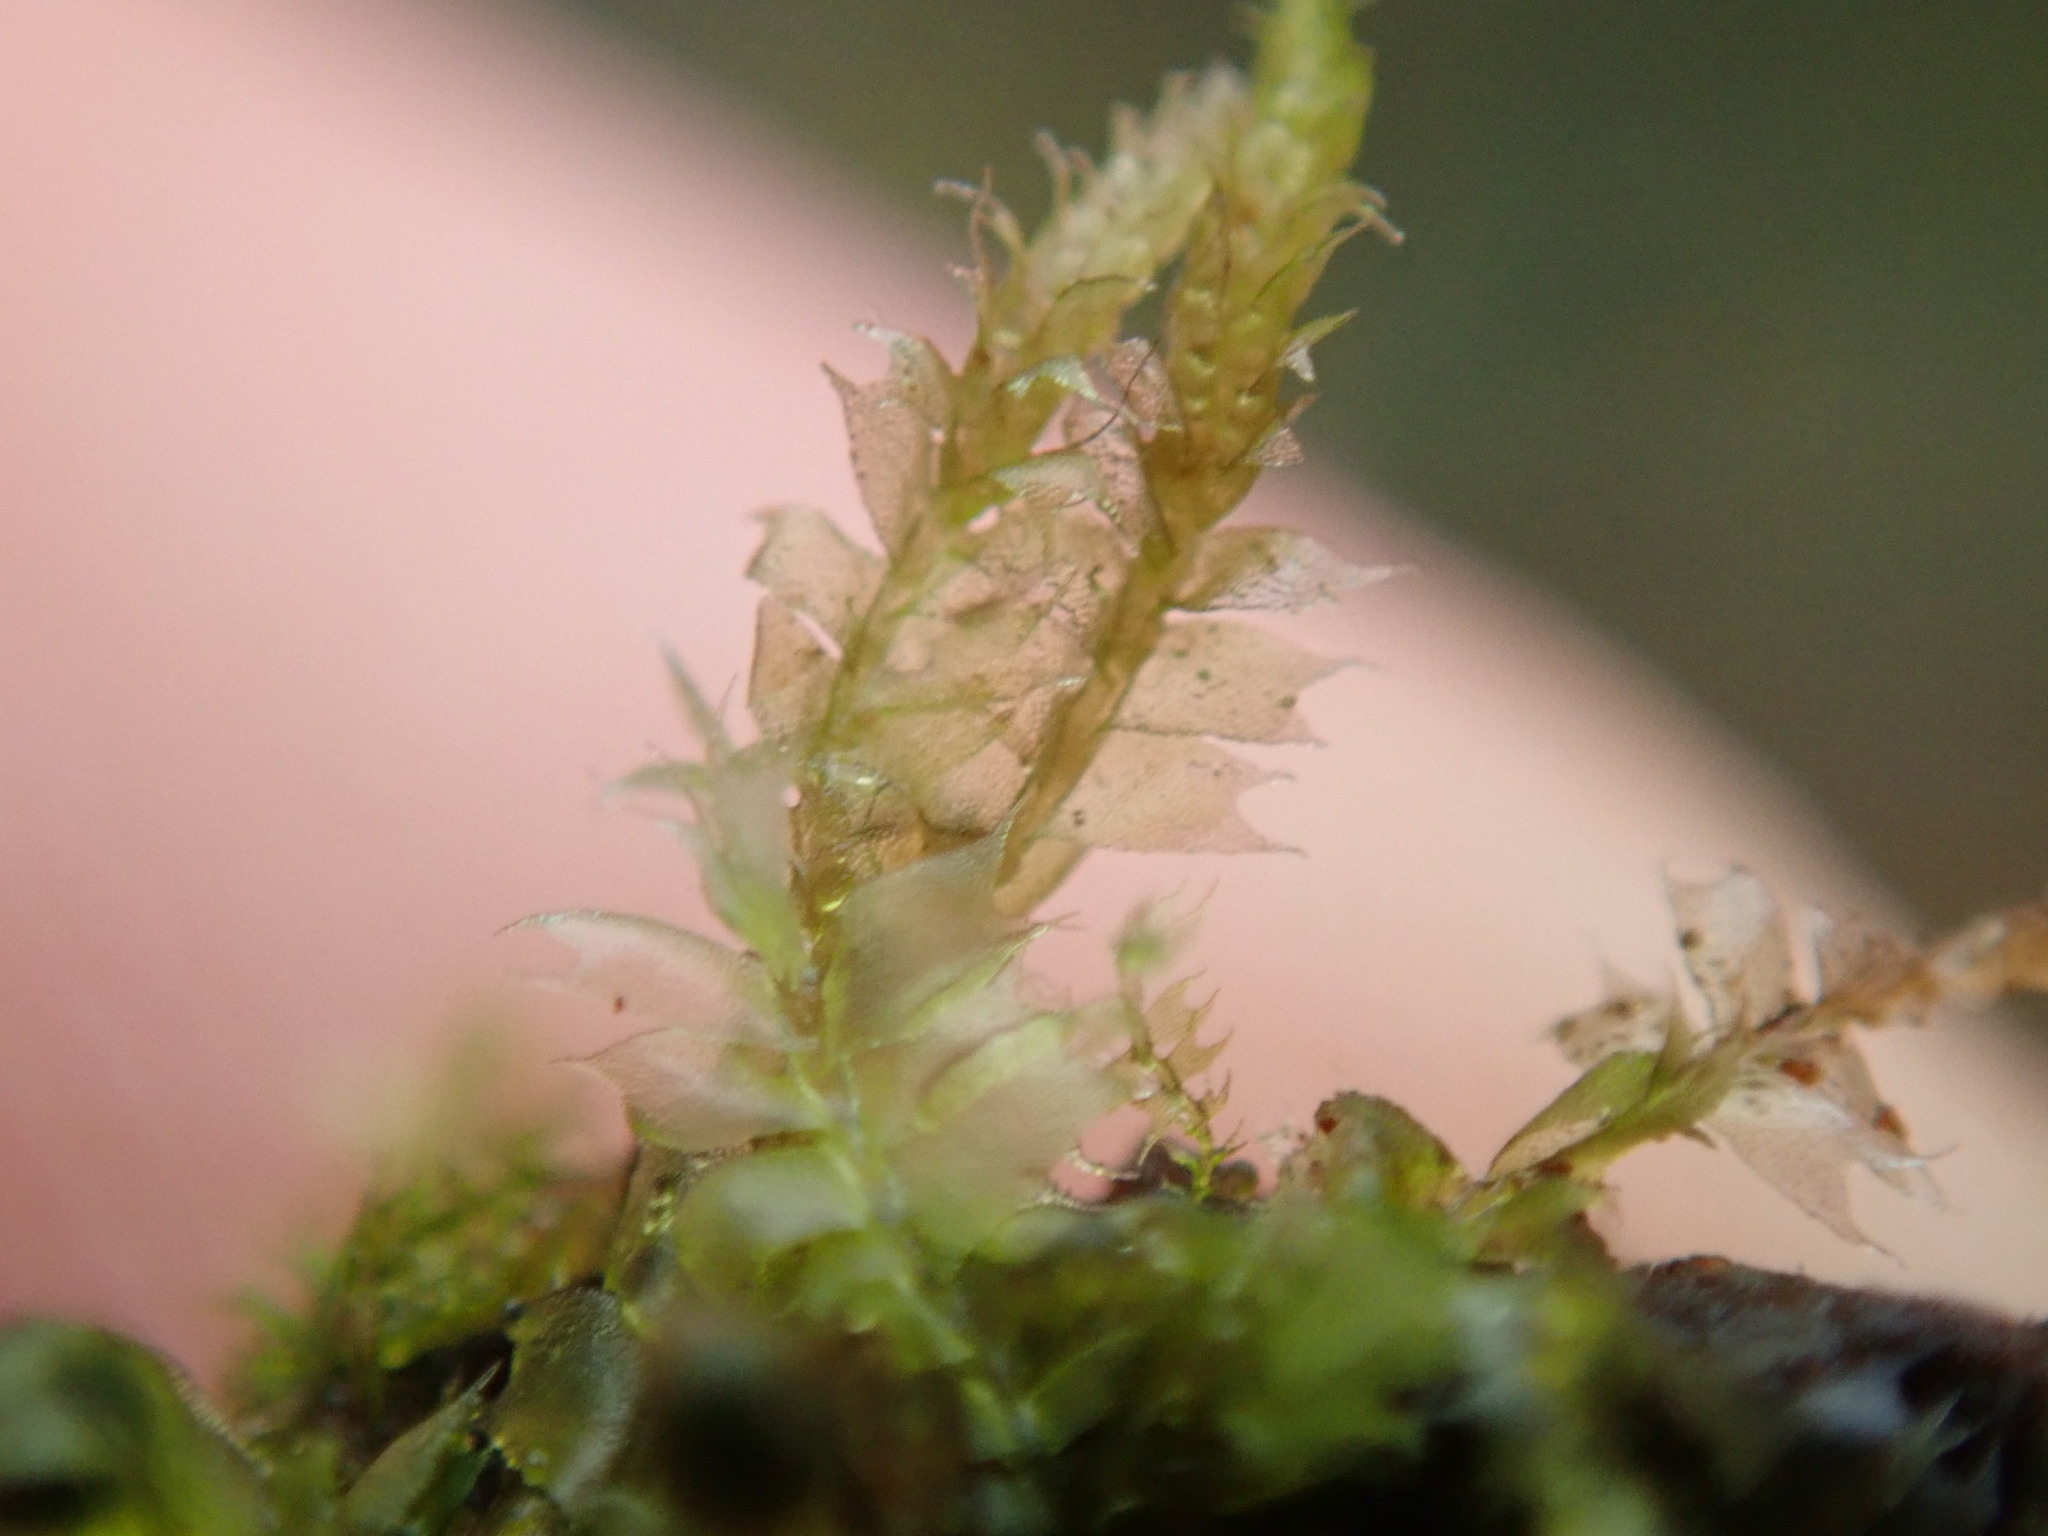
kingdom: Plantae
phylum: Marchantiophyta
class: Jungermanniopsida
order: Jungermanniales
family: Lophocoleaceae
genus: Lophocolea
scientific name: Lophocolea bidentata
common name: Bifid crestwort
